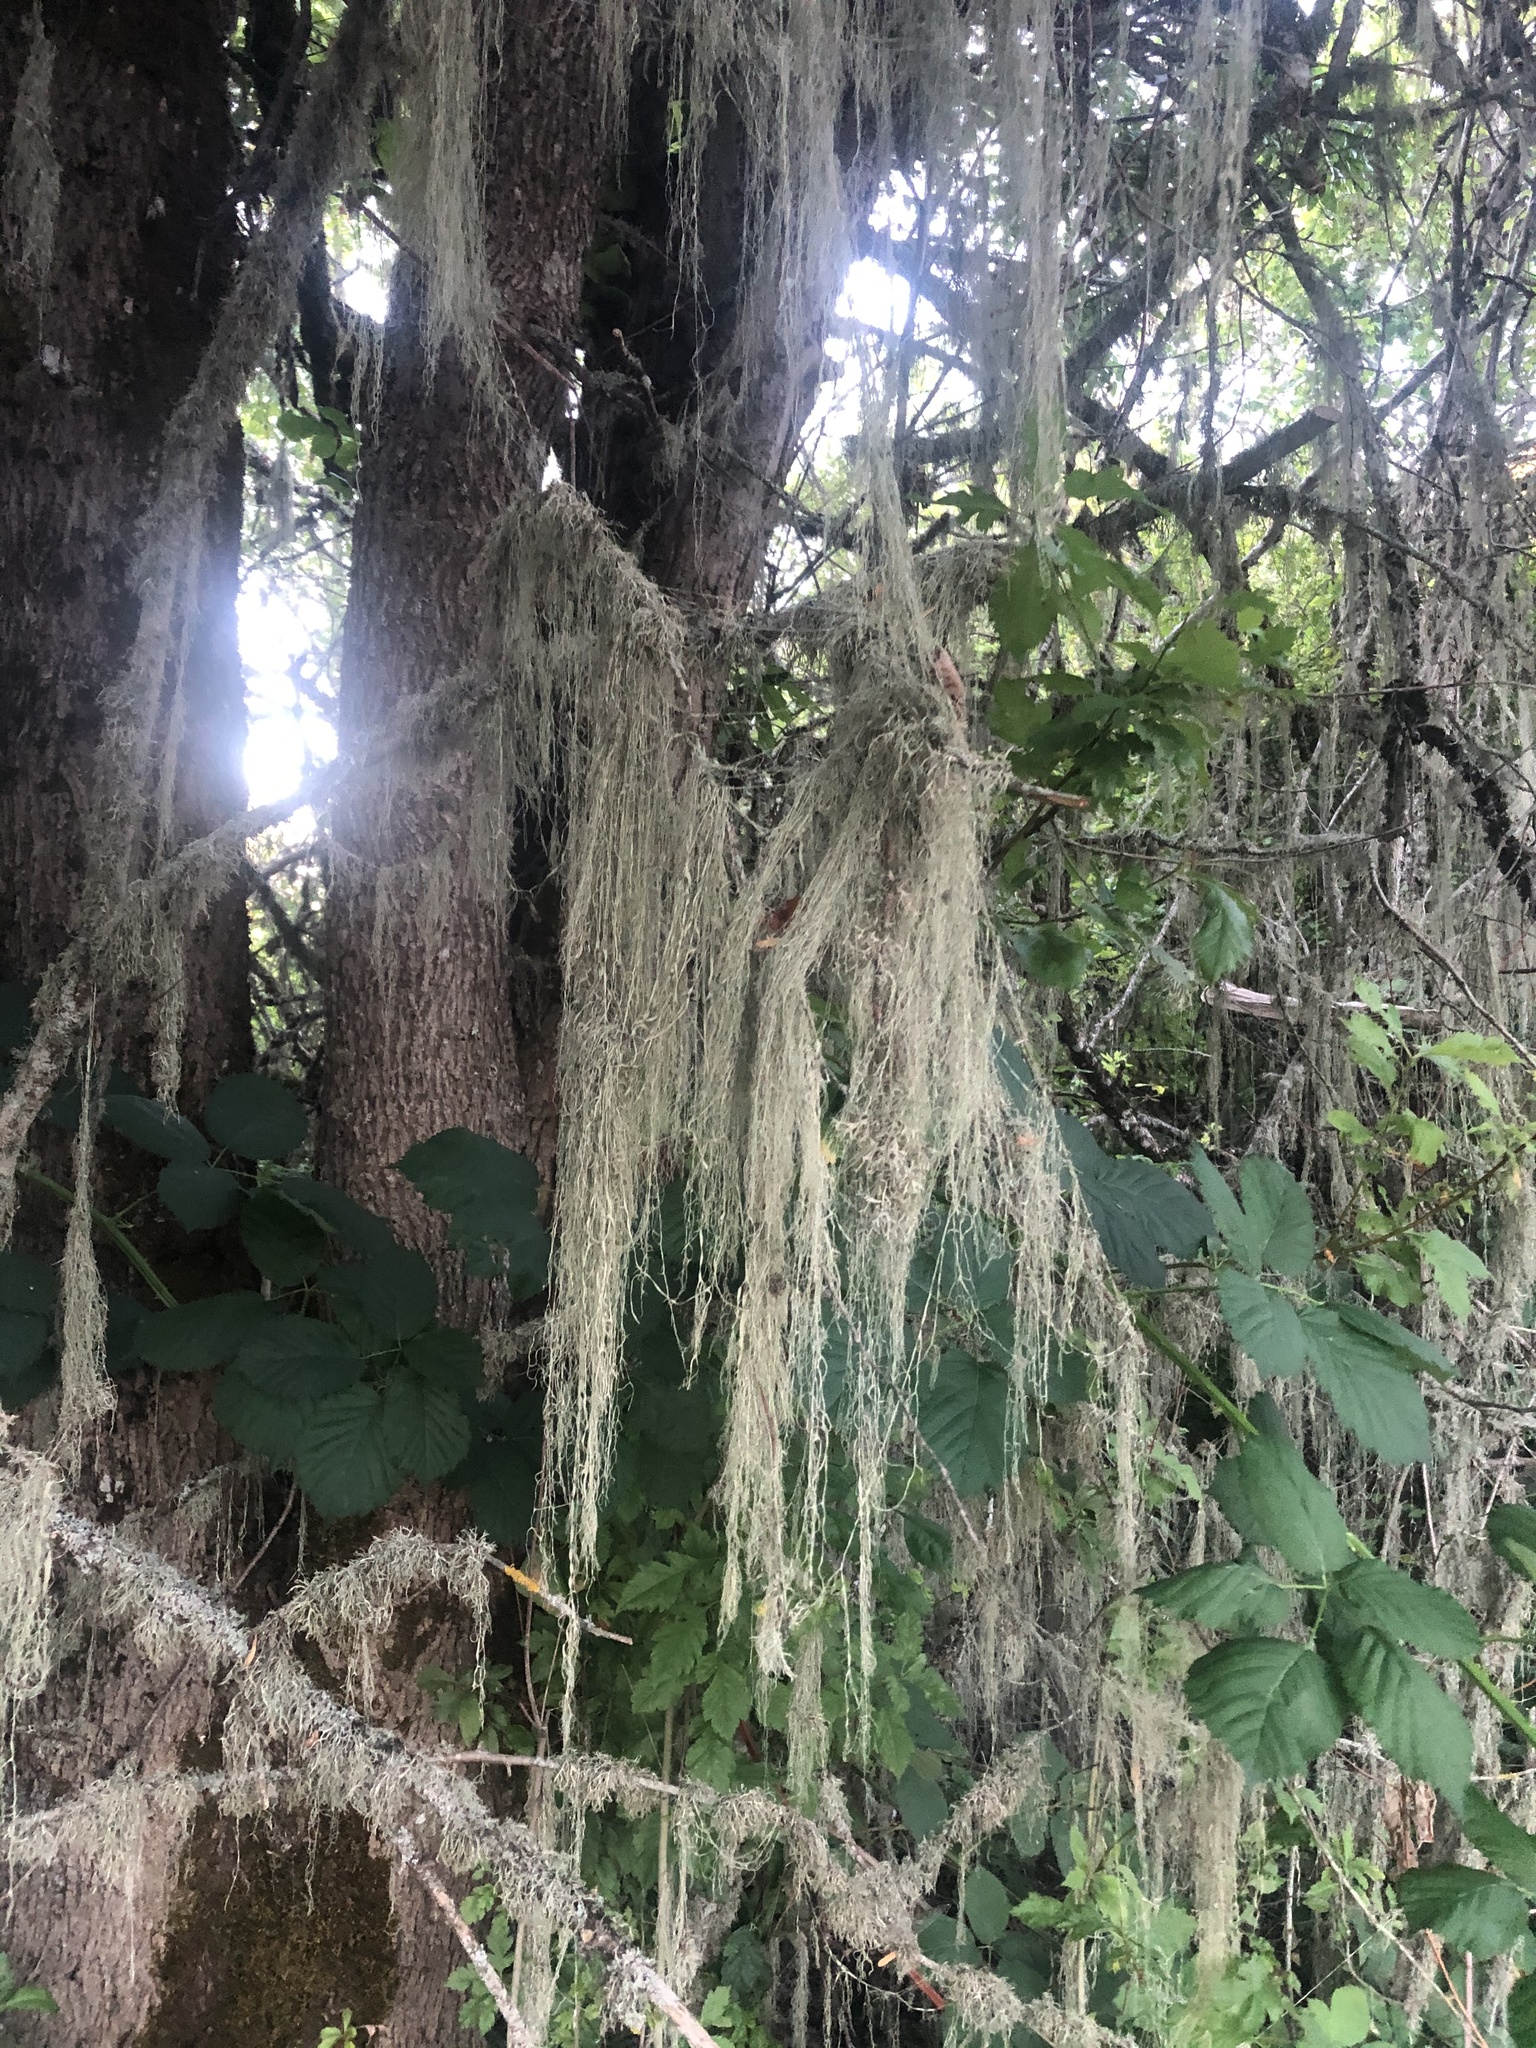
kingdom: Fungi
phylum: Ascomycota
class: Lecanoromycetes
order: Lecanorales
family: Ramalinaceae
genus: Ramalina
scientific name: Ramalina menziesii
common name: Lace lichen
